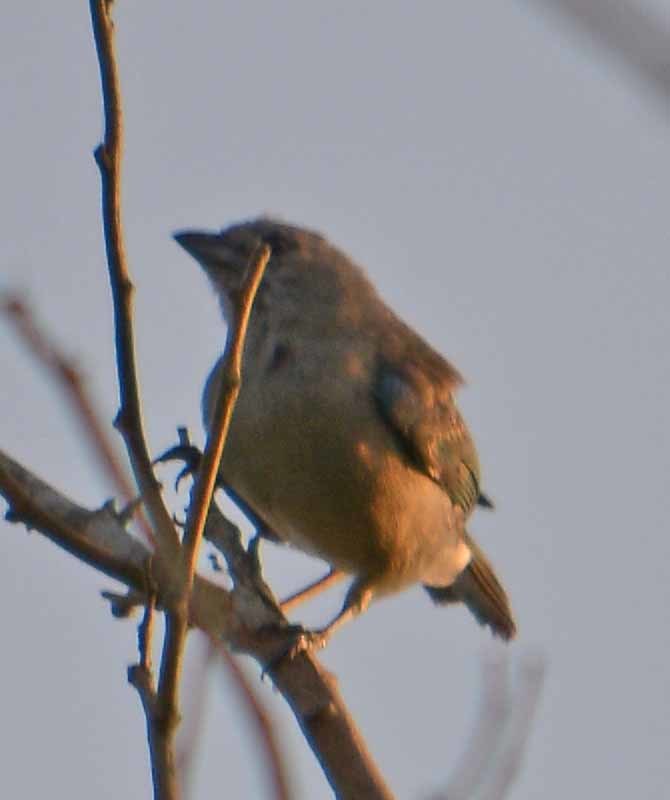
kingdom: Animalia
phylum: Chordata
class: Aves
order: Passeriformes
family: Thraupidae
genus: Volatinia
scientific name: Volatinia jacarina
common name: Blue-black grassquit
